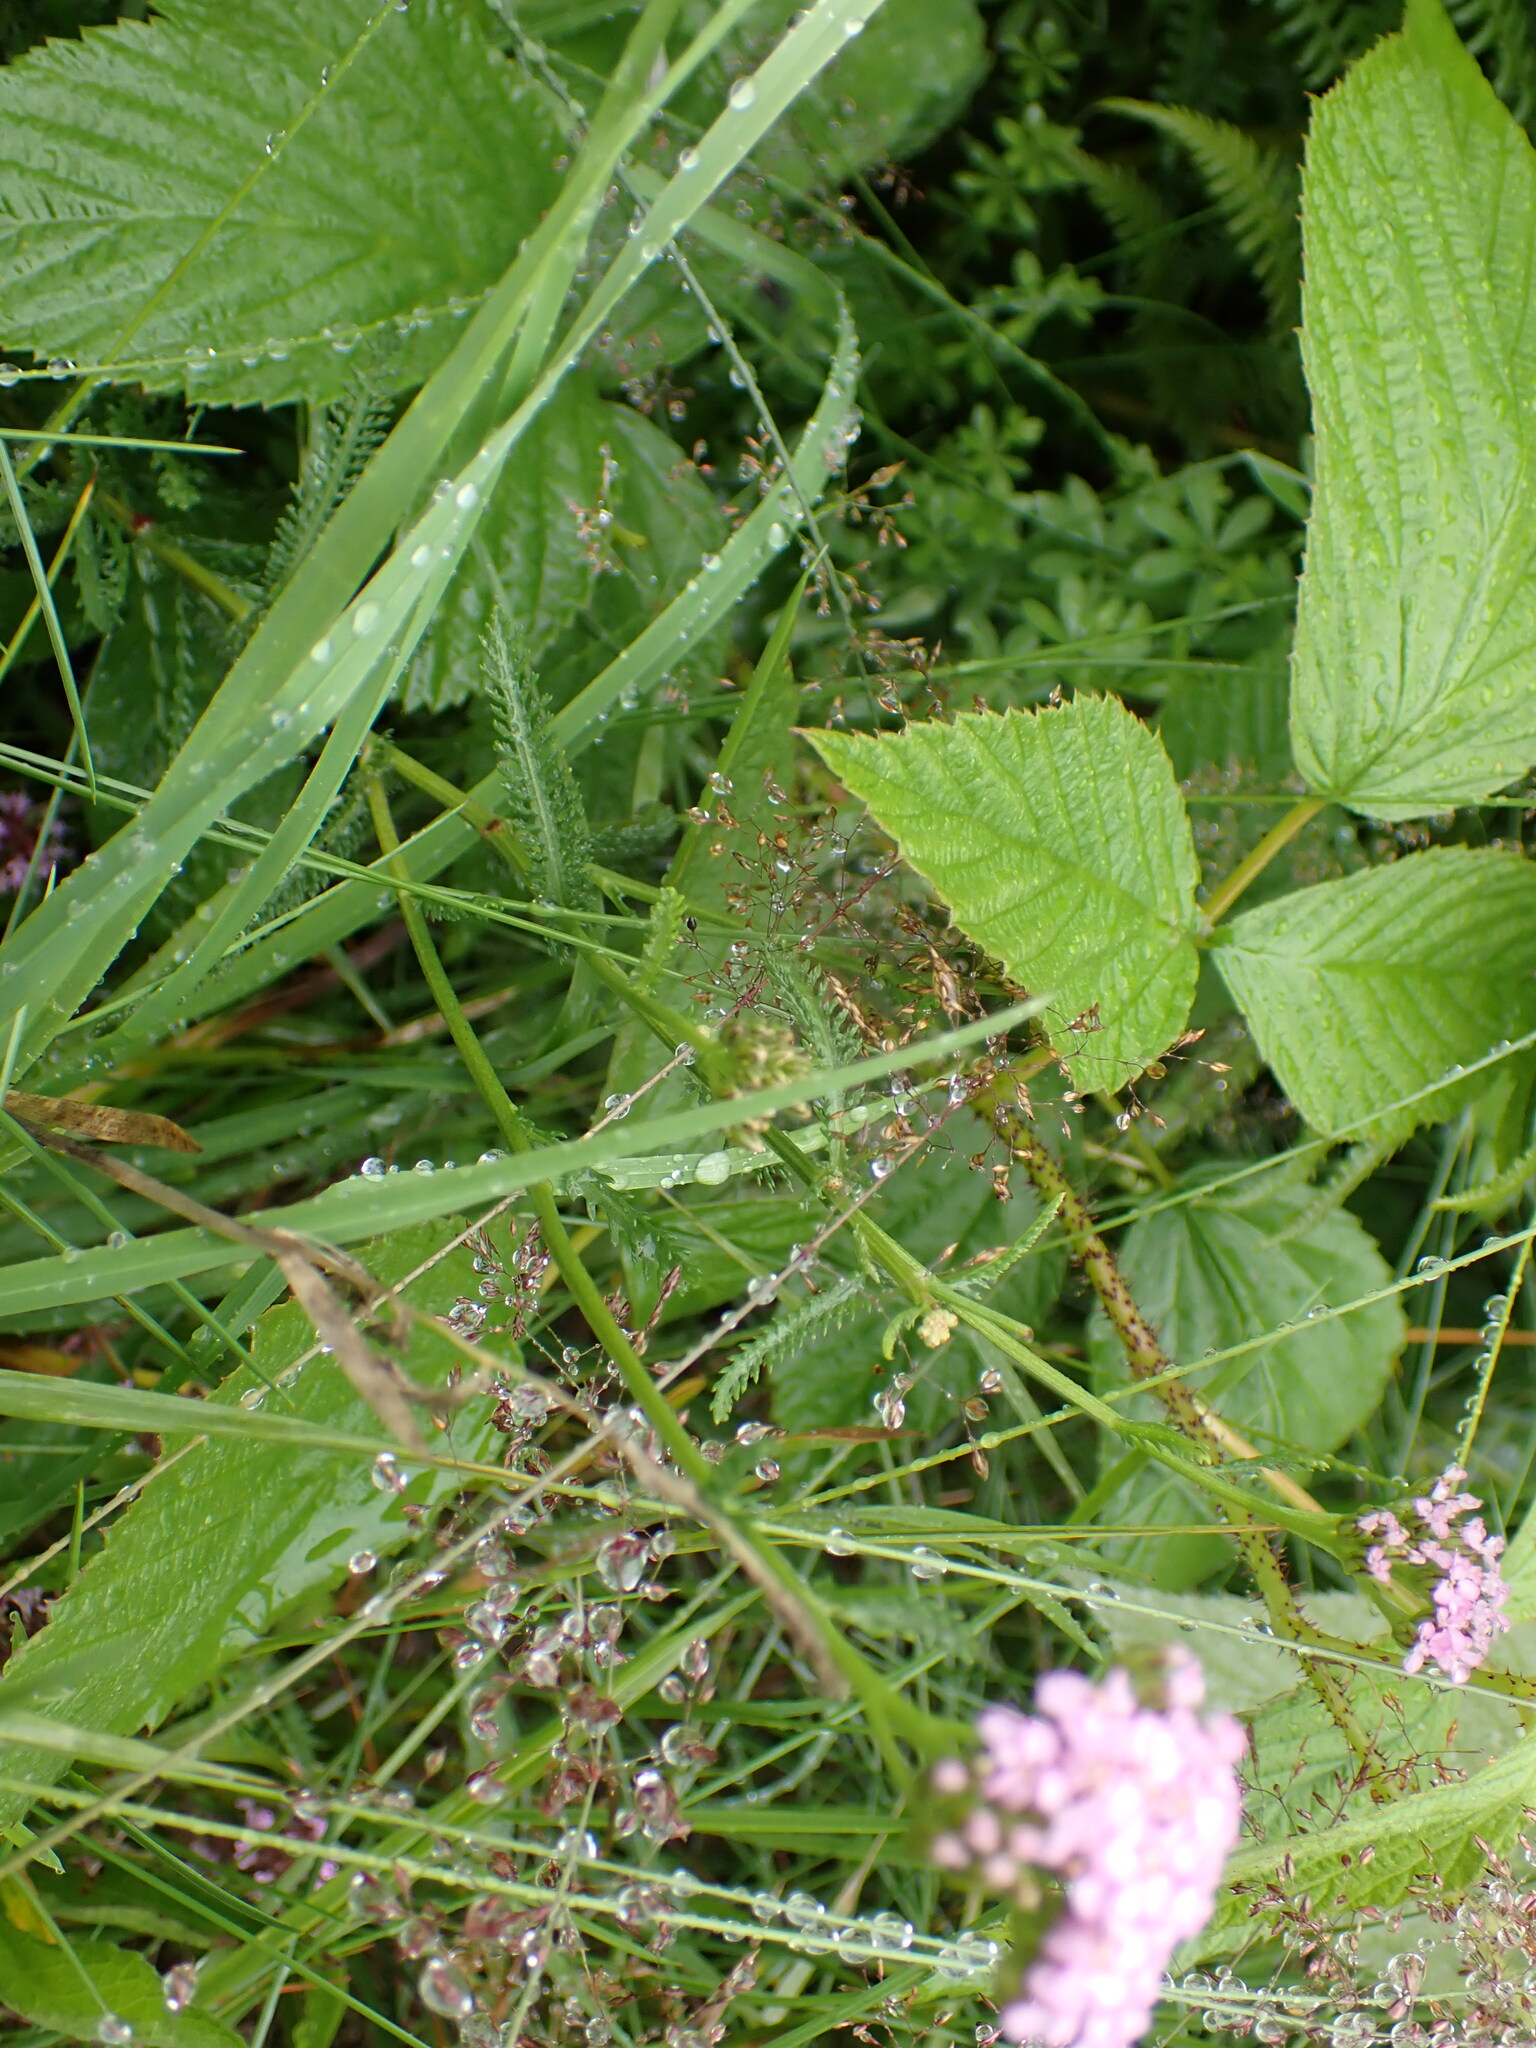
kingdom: Plantae
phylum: Tracheophyta
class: Magnoliopsida
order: Asterales
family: Asteraceae
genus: Achillea
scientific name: Achillea millefolium
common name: Yarrow
